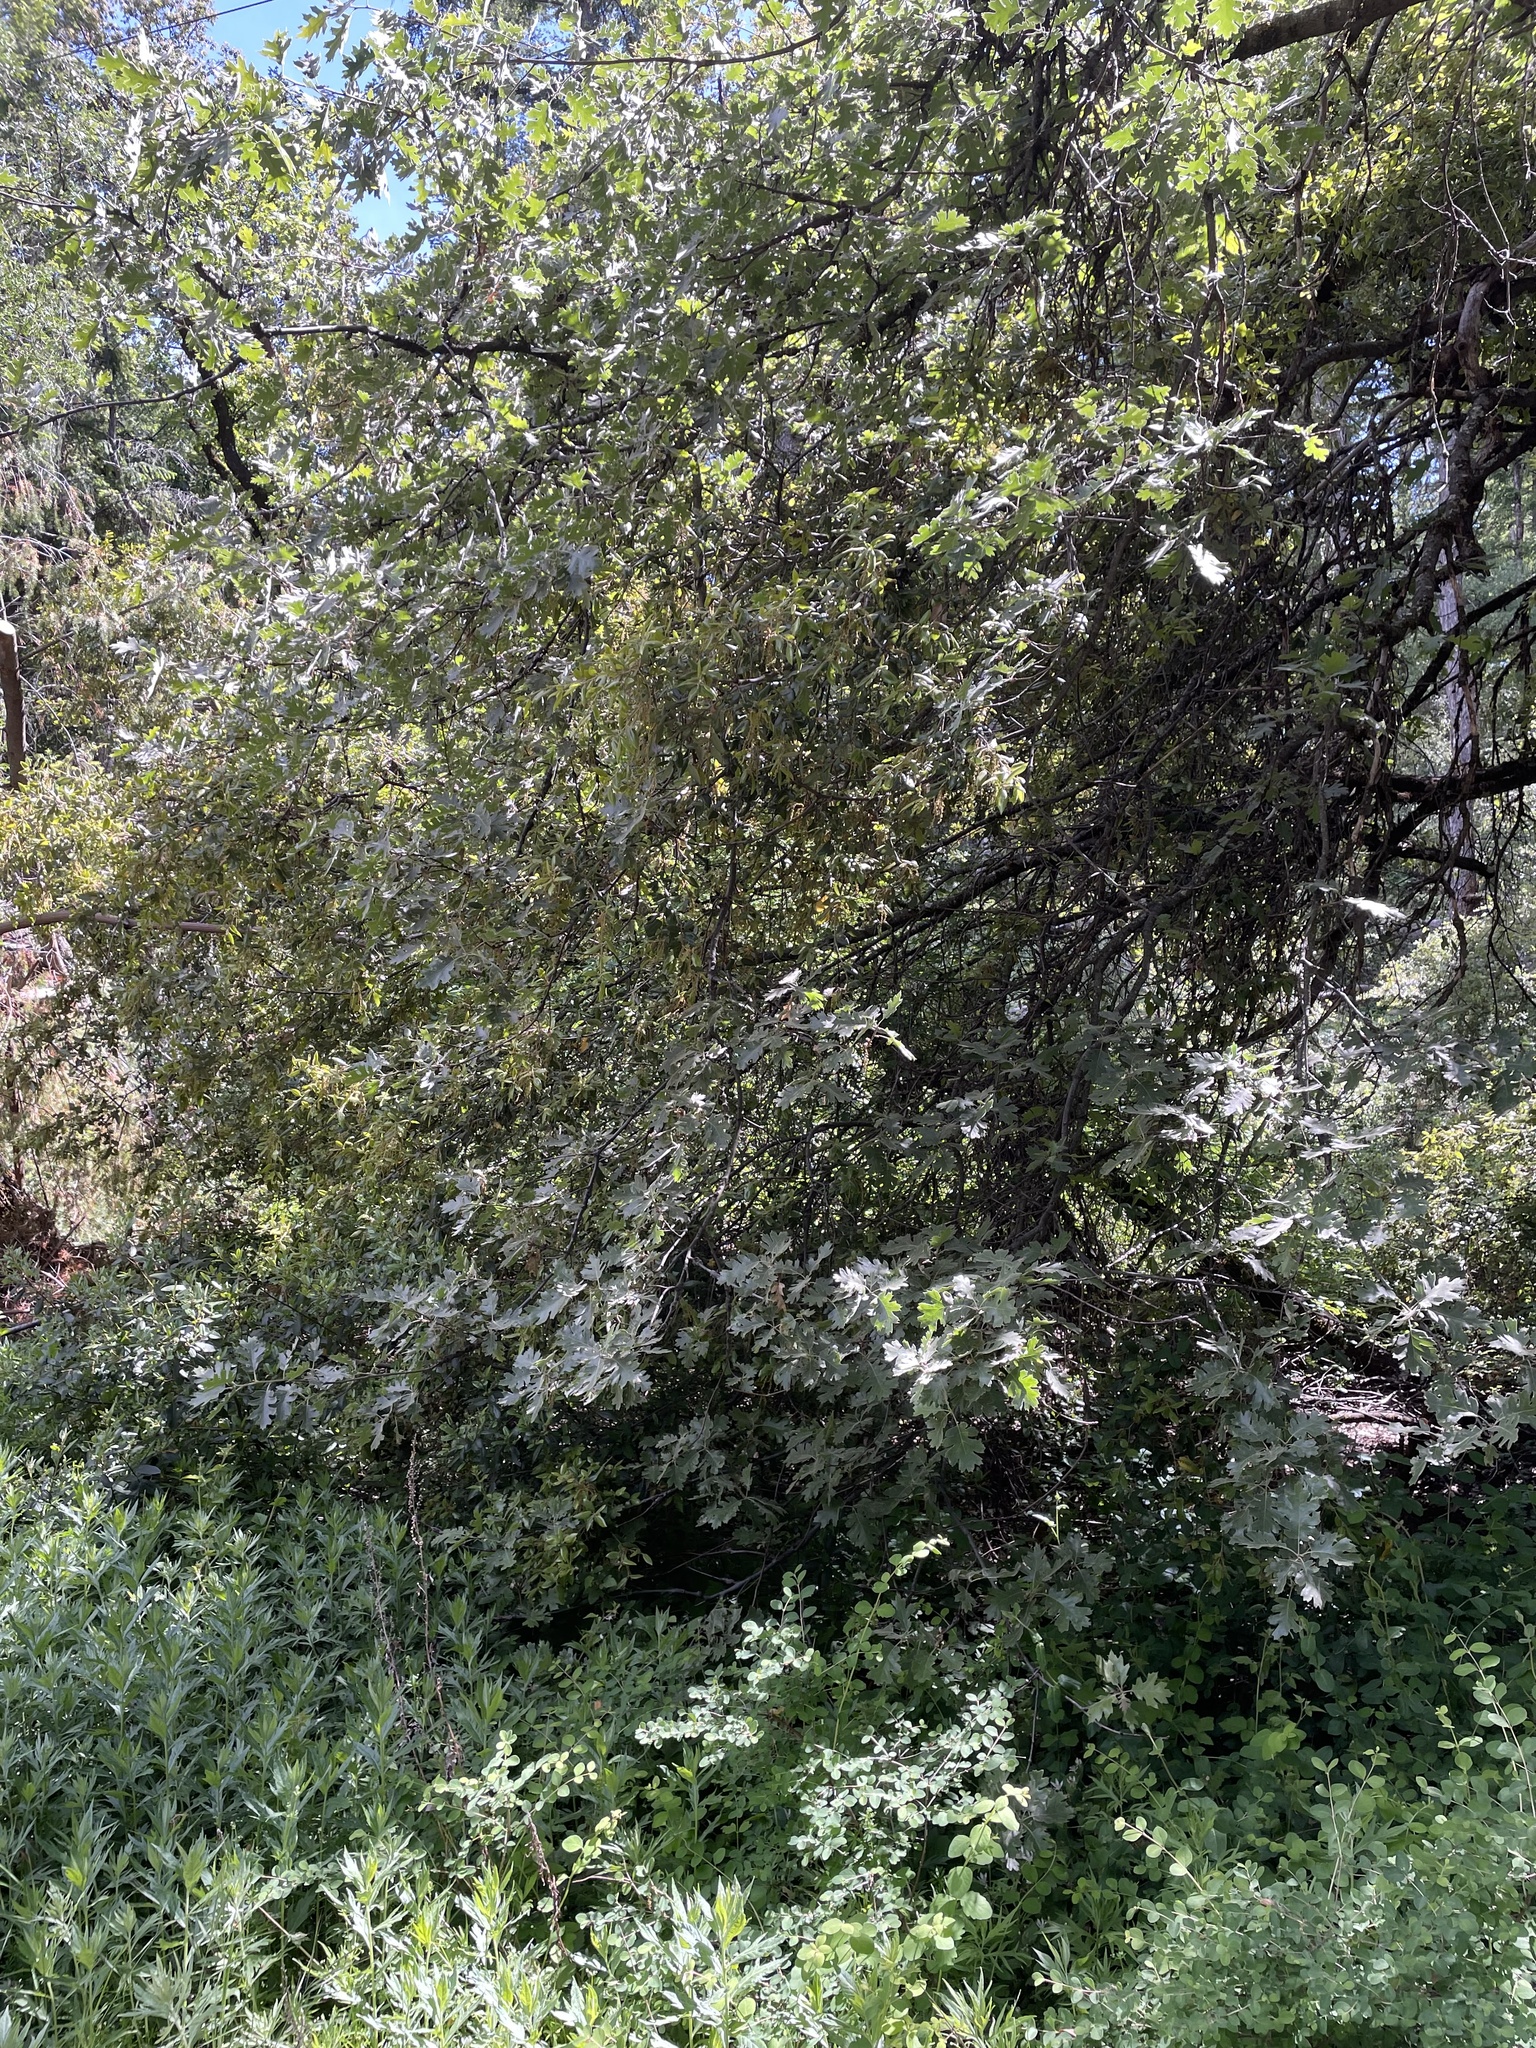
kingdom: Plantae
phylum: Tracheophyta
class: Magnoliopsida
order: Fagales
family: Fagaceae
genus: Quercus
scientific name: Quercus kelloggii
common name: California black oak
